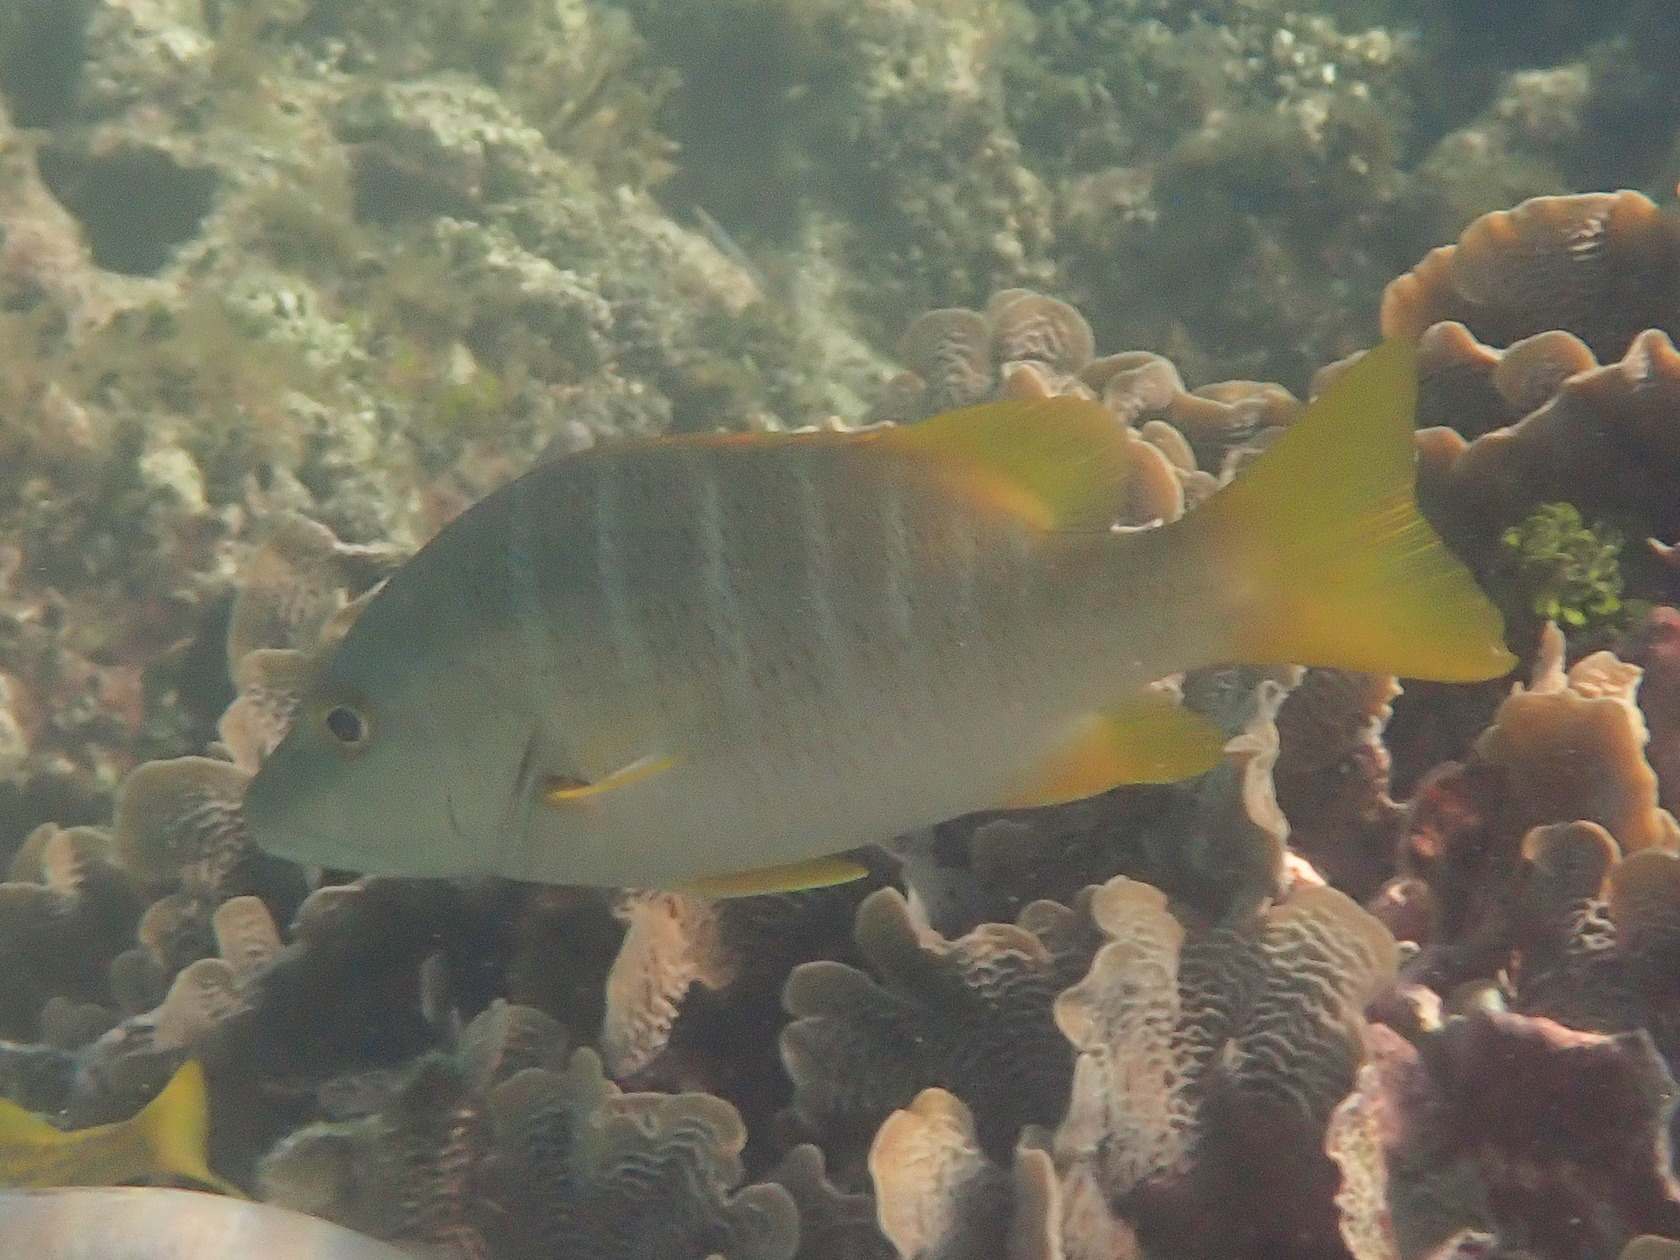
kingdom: Animalia
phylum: Chordata
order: Perciformes
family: Lutjanidae
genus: Lutjanus
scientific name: Lutjanus apodus
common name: Schoolmaster
